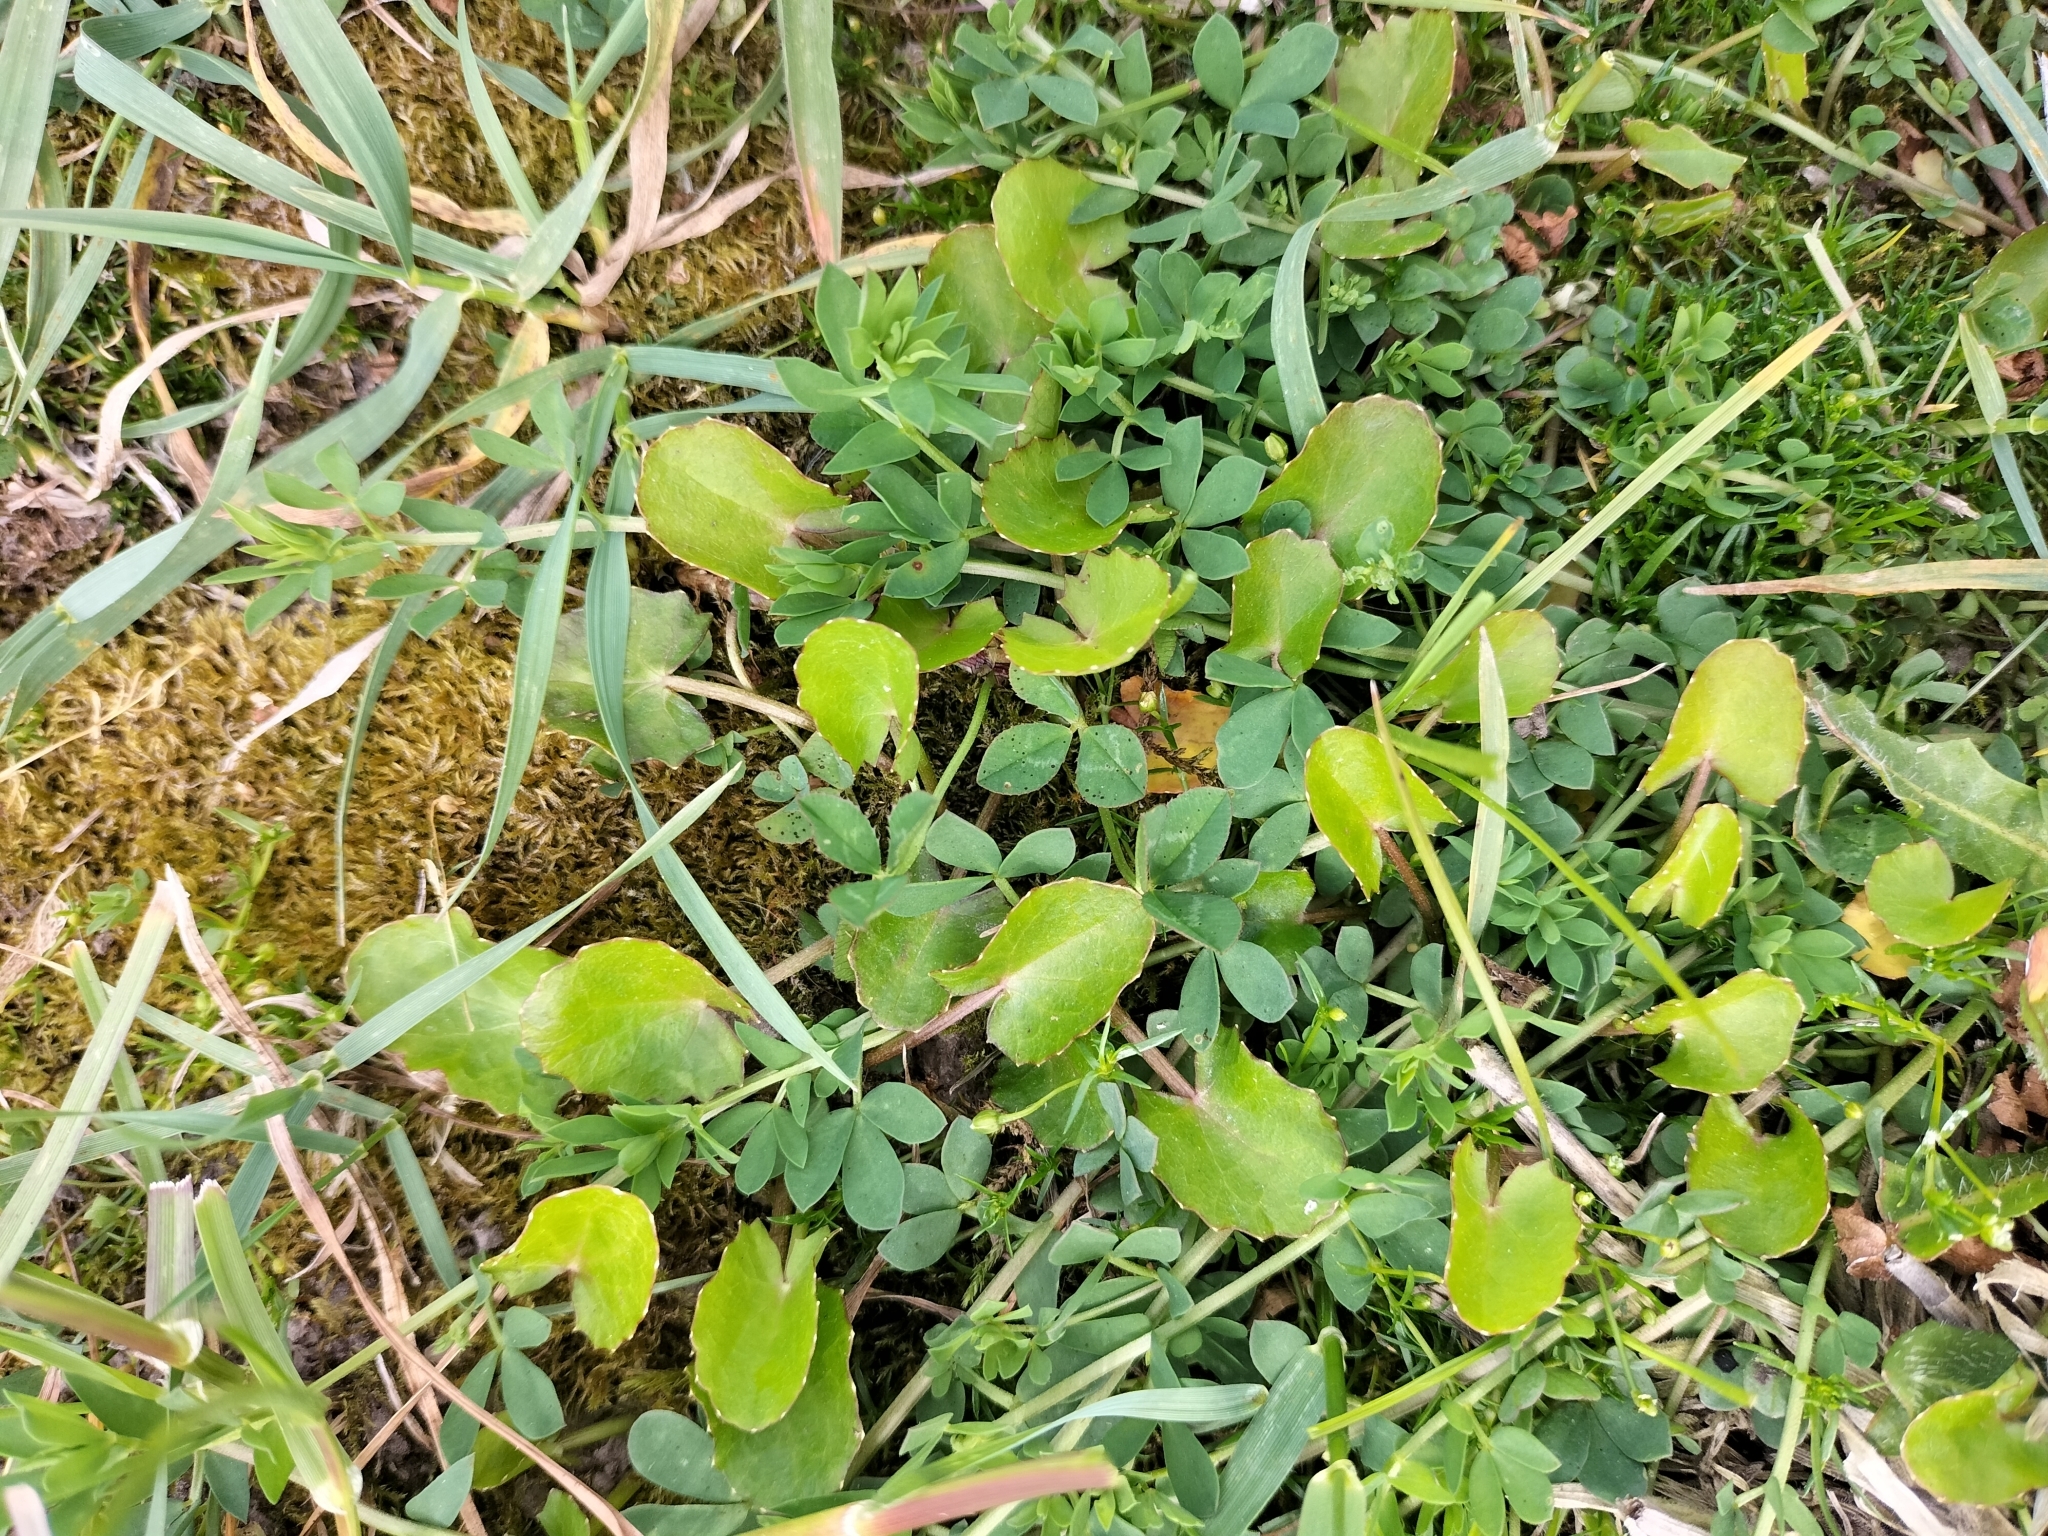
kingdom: Plantae
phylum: Tracheophyta
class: Magnoliopsida
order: Apiales
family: Apiaceae
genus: Centella
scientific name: Centella uniflora
